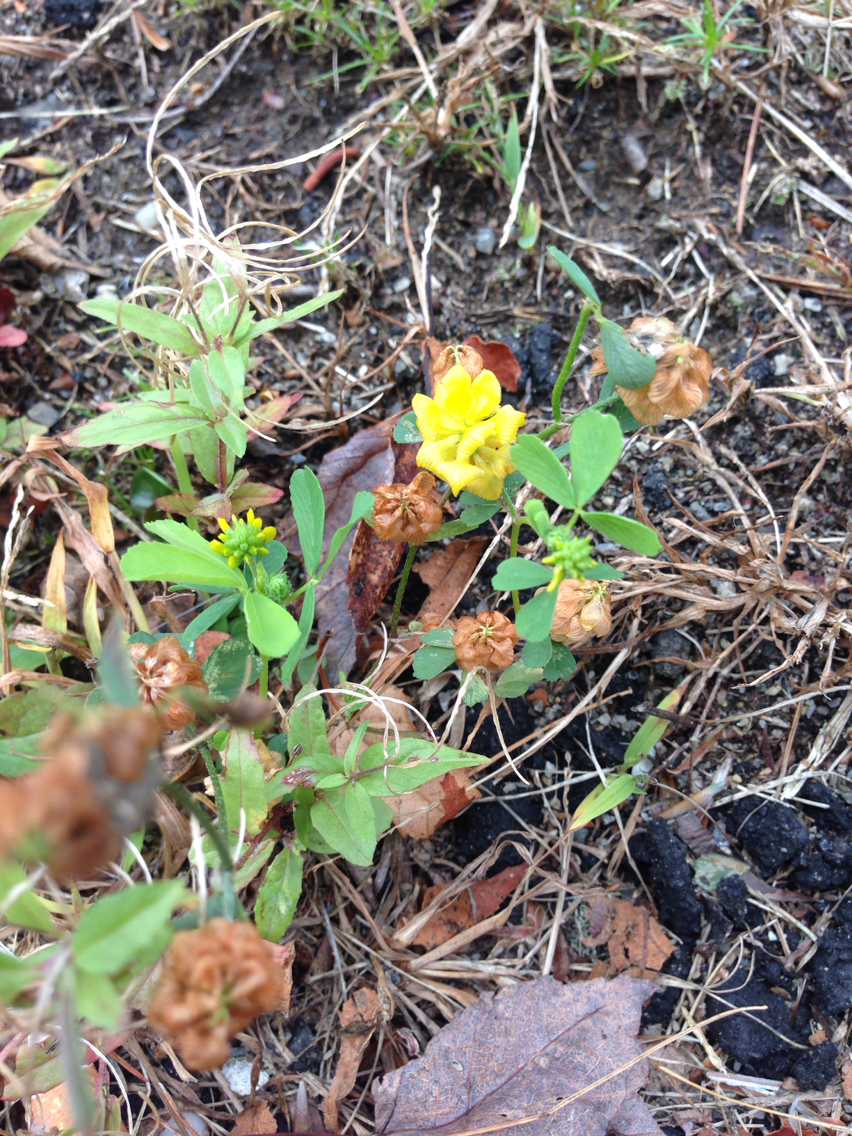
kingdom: Plantae
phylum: Tracheophyta
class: Magnoliopsida
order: Fabales
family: Fabaceae
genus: Trifolium
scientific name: Trifolium aureum
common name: Golden clover
